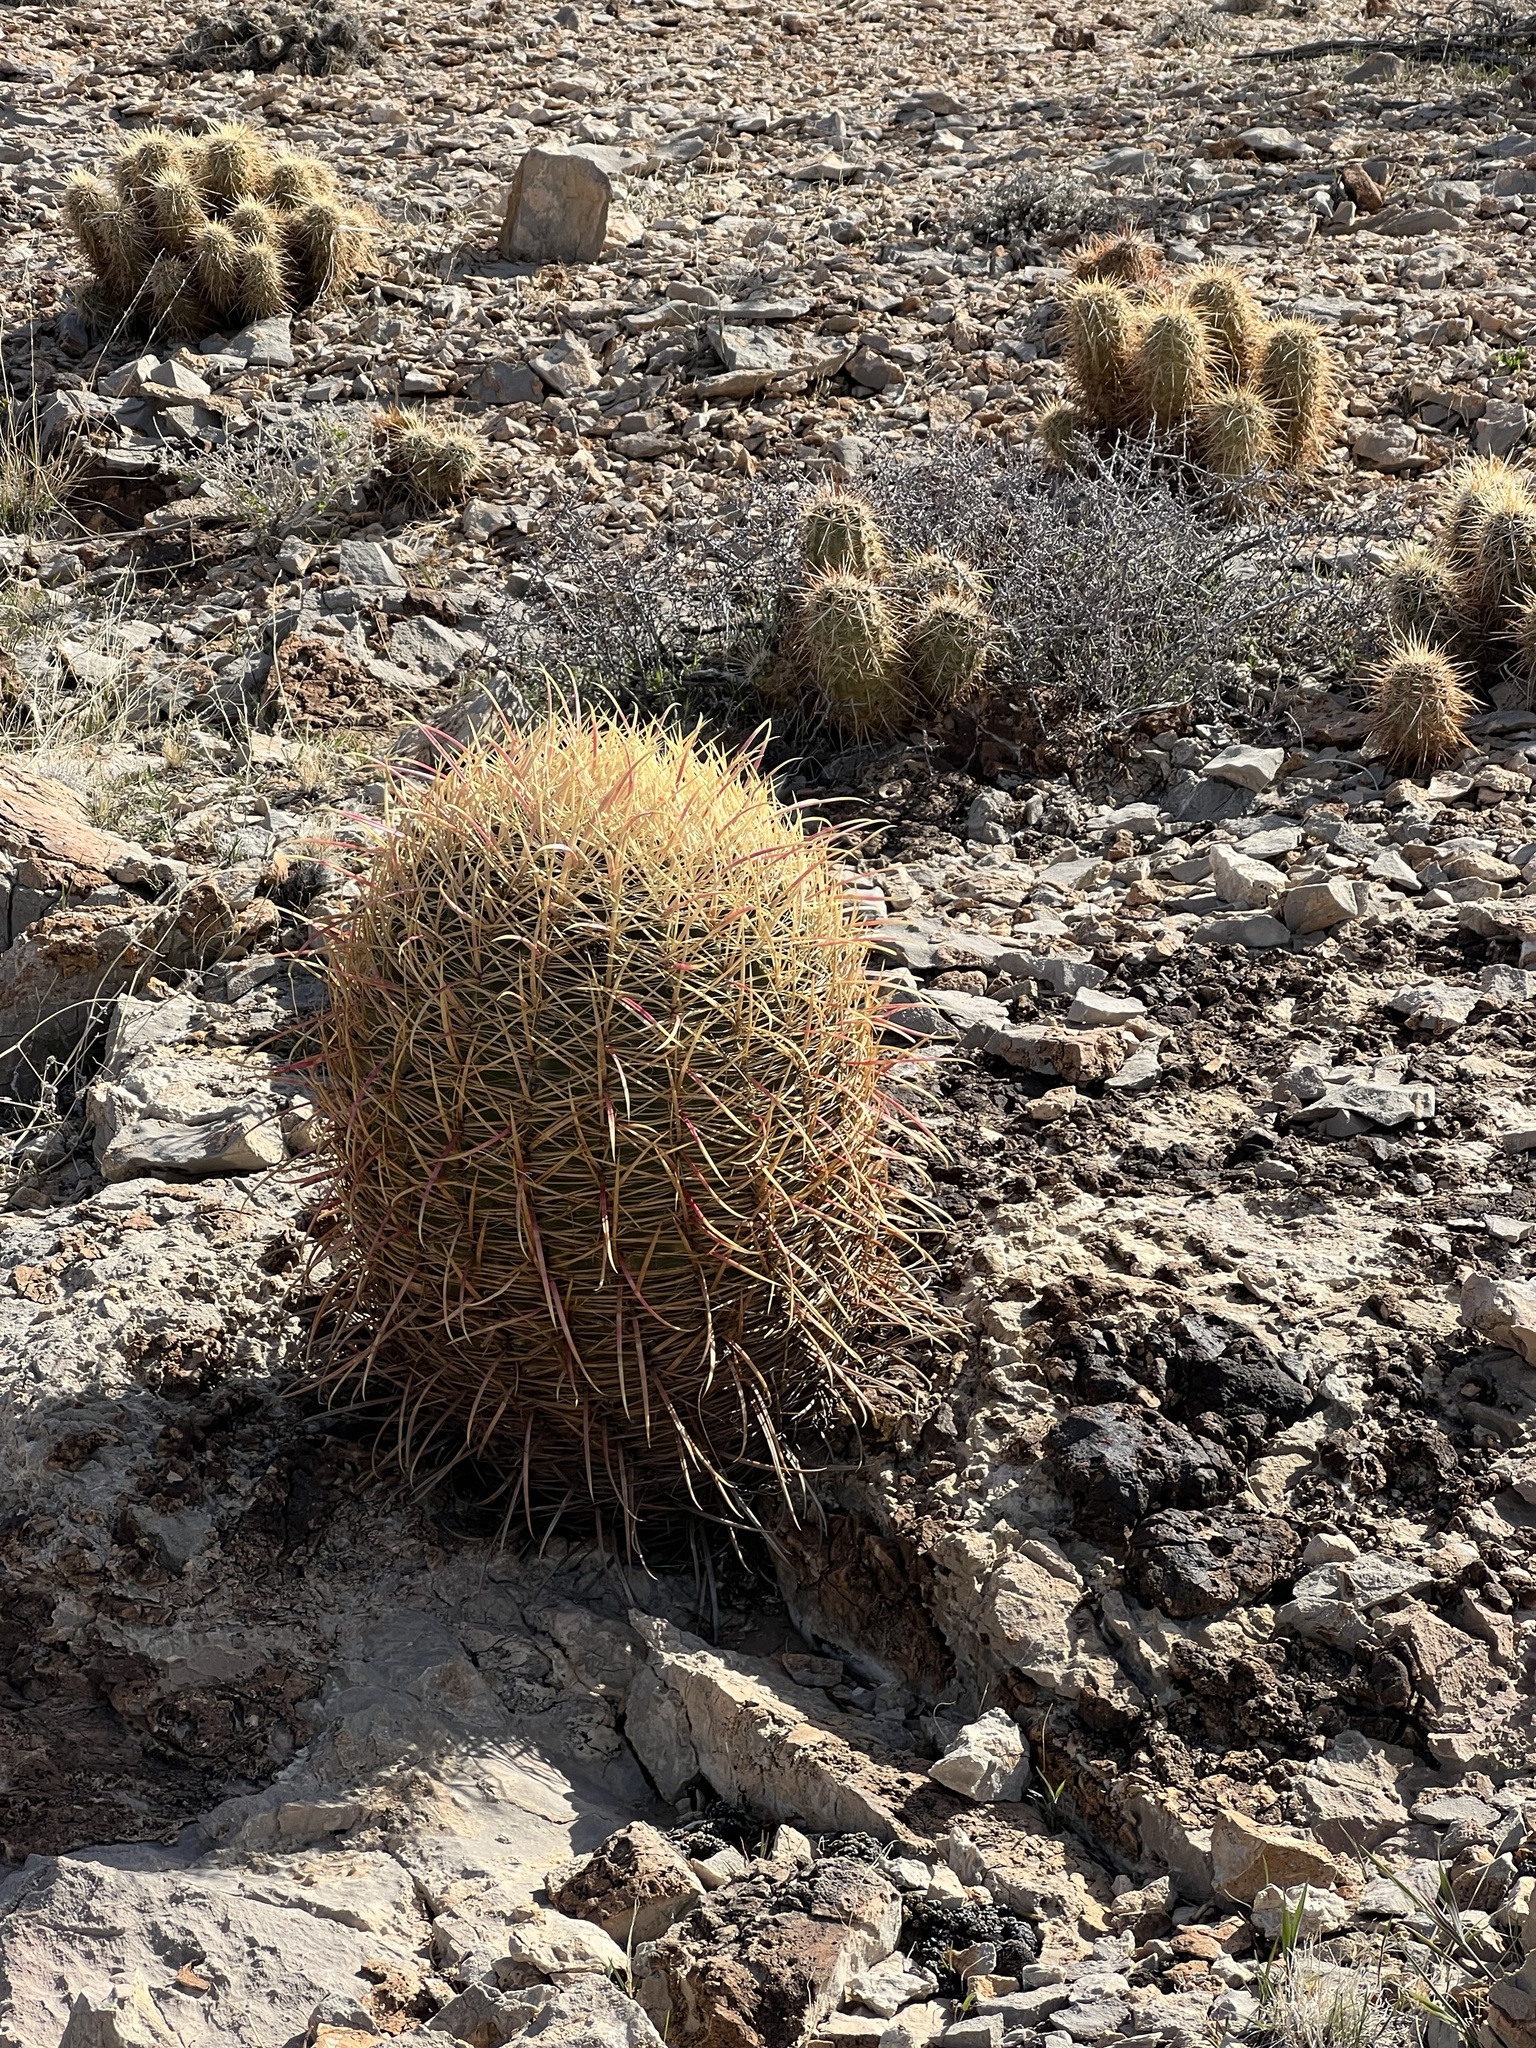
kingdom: Plantae
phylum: Tracheophyta
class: Magnoliopsida
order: Caryophyllales
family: Cactaceae
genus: Ferocactus
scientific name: Ferocactus cylindraceus
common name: California barrel cactus
